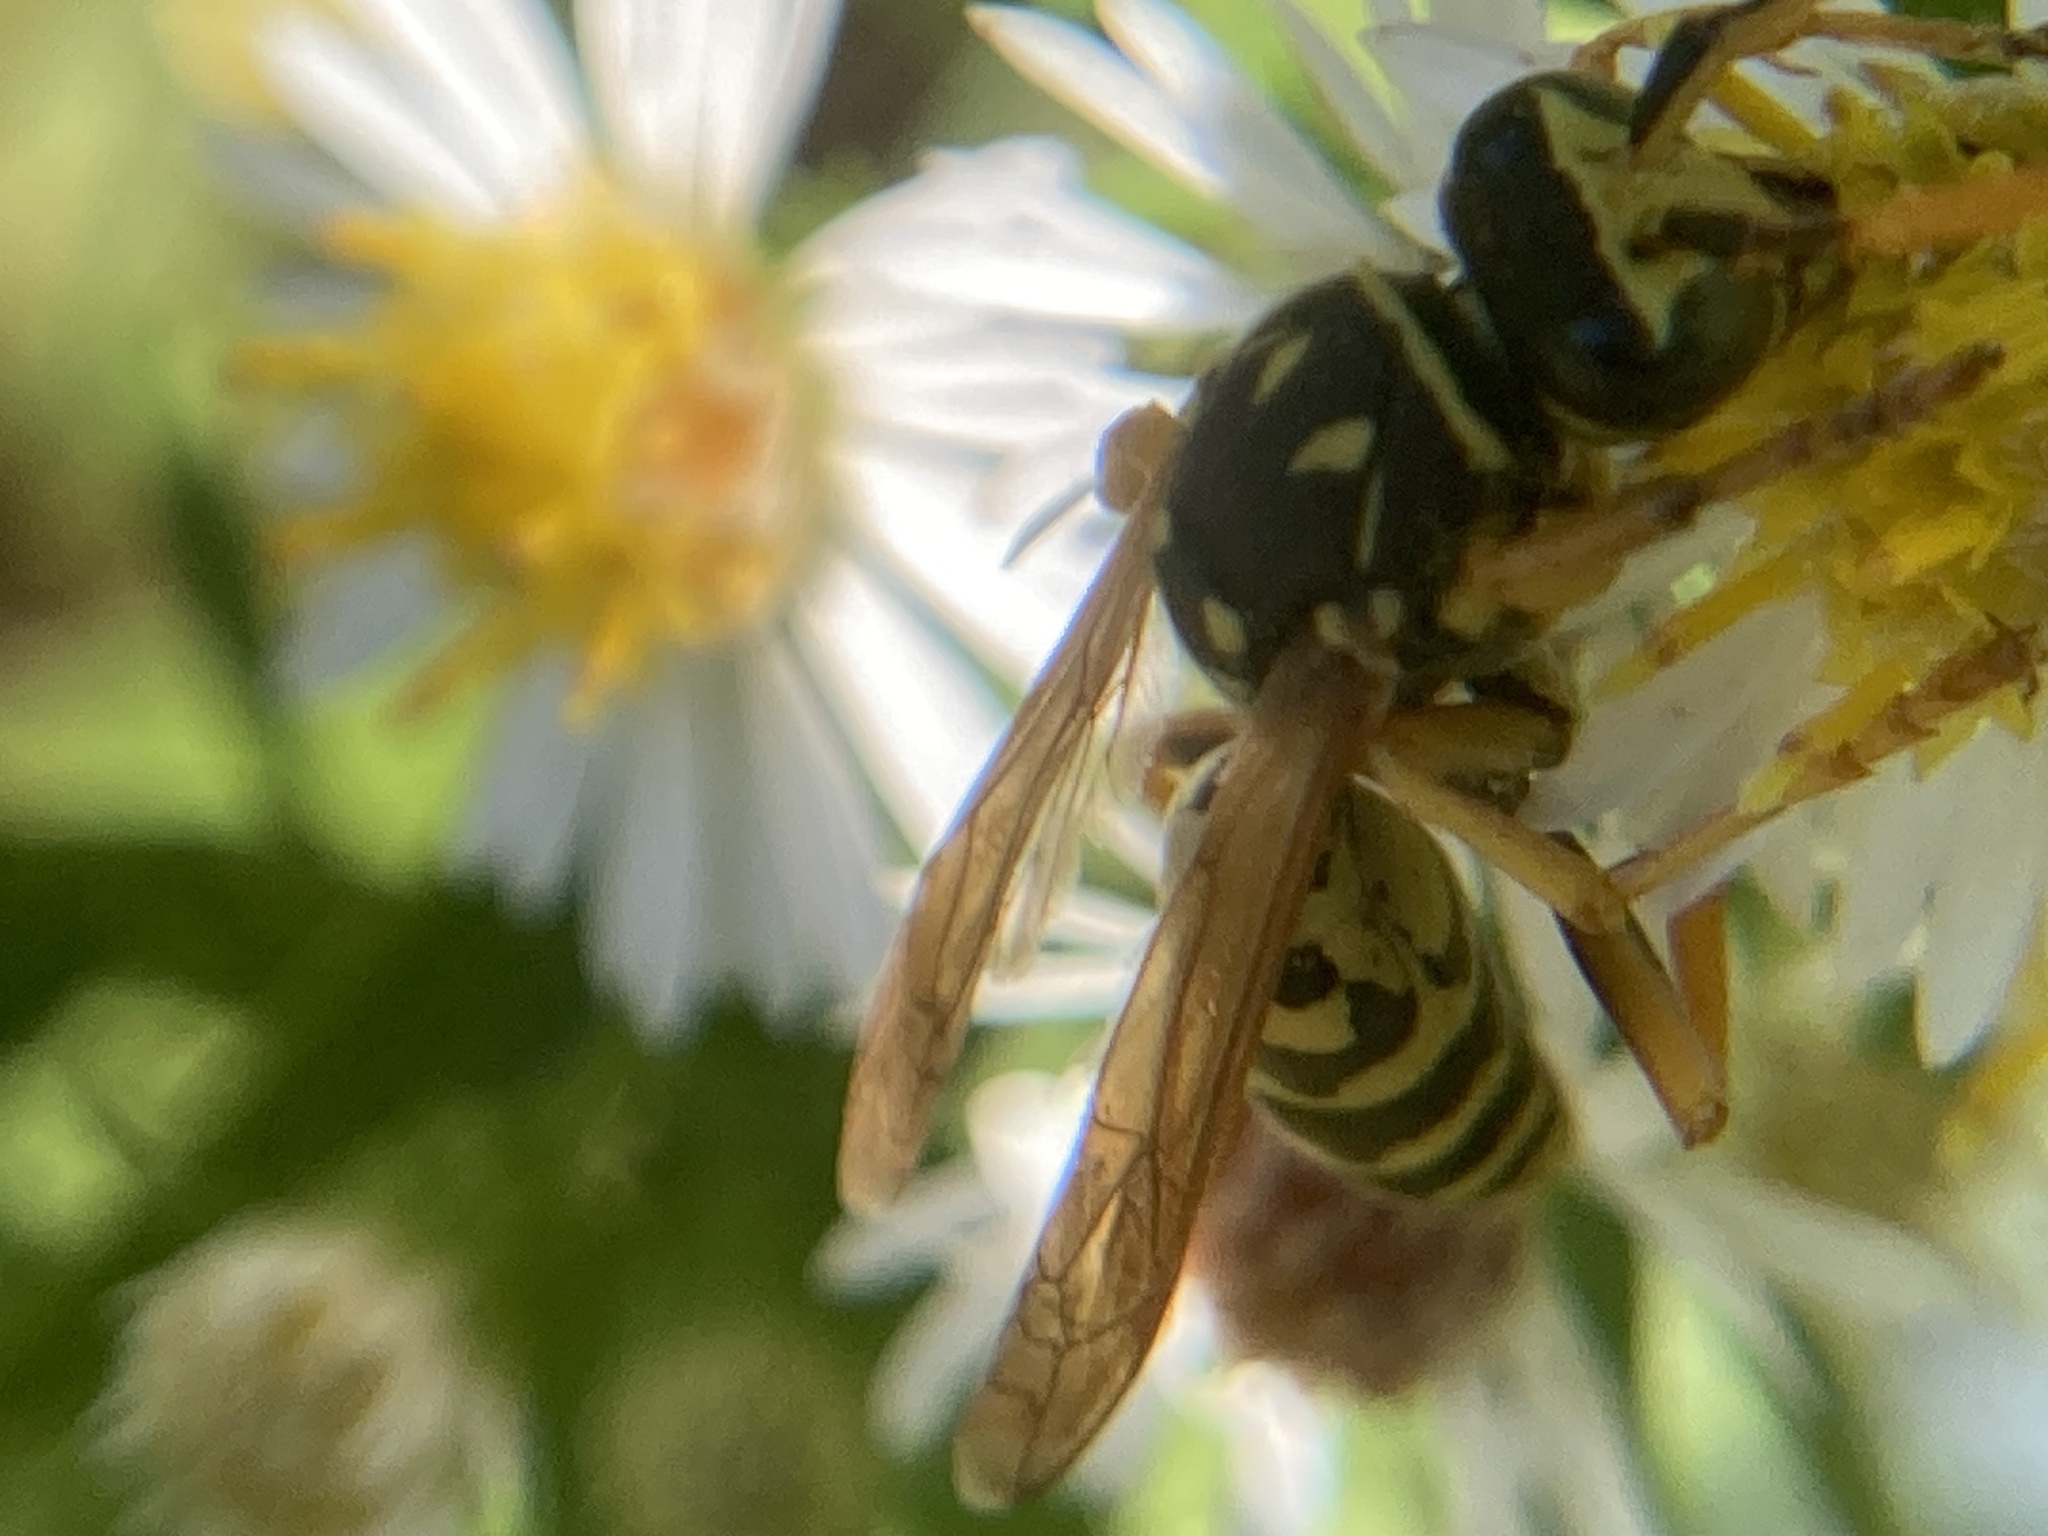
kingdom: Animalia
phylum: Arthropoda
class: Insecta
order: Hymenoptera
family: Eumenidae
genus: Polistes
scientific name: Polistes dominula
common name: Paper wasp
